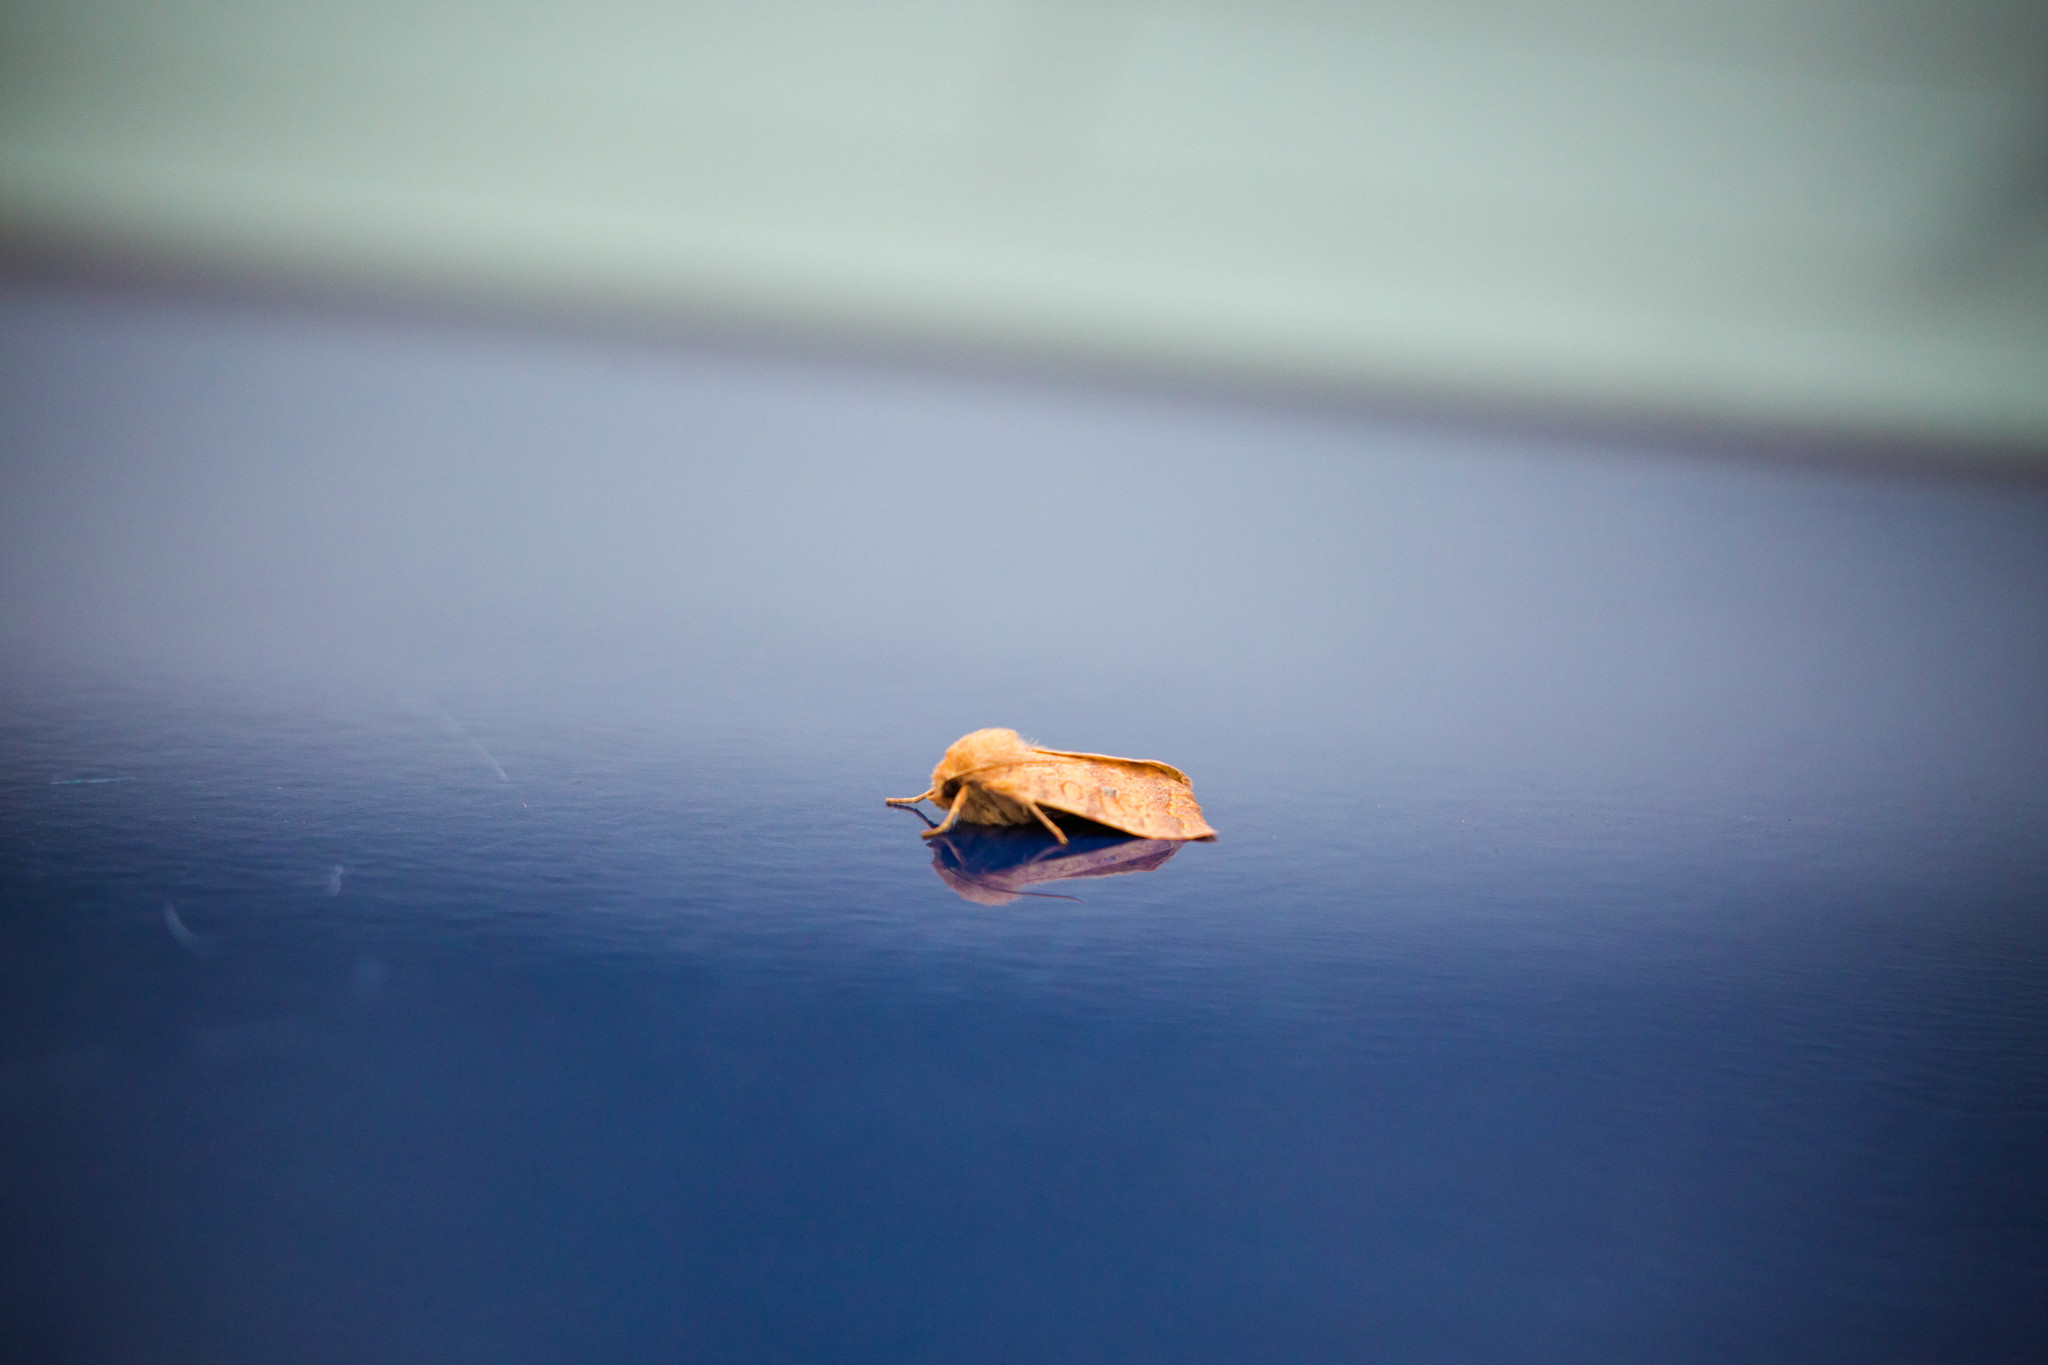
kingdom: Animalia
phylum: Arthropoda
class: Insecta
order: Lepidoptera
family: Noctuidae
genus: Agrochola
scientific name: Agrochola bicolorago
